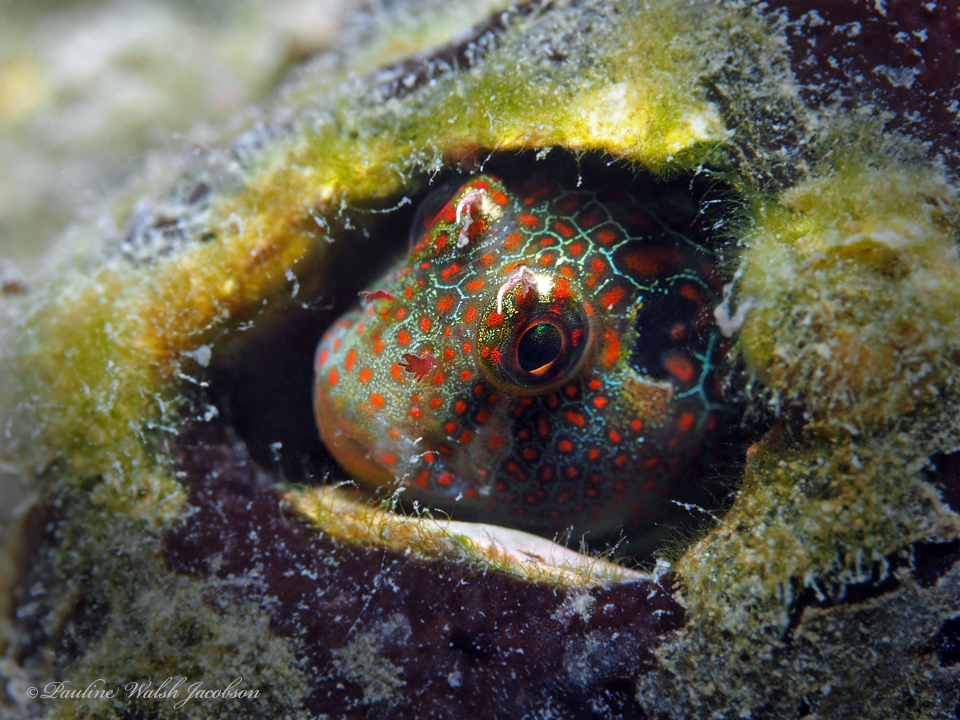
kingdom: Animalia
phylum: Chordata
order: Perciformes
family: Blenniidae
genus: Hypsoblennius
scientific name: Hypsoblennius invemar
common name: Tessellated blenny
